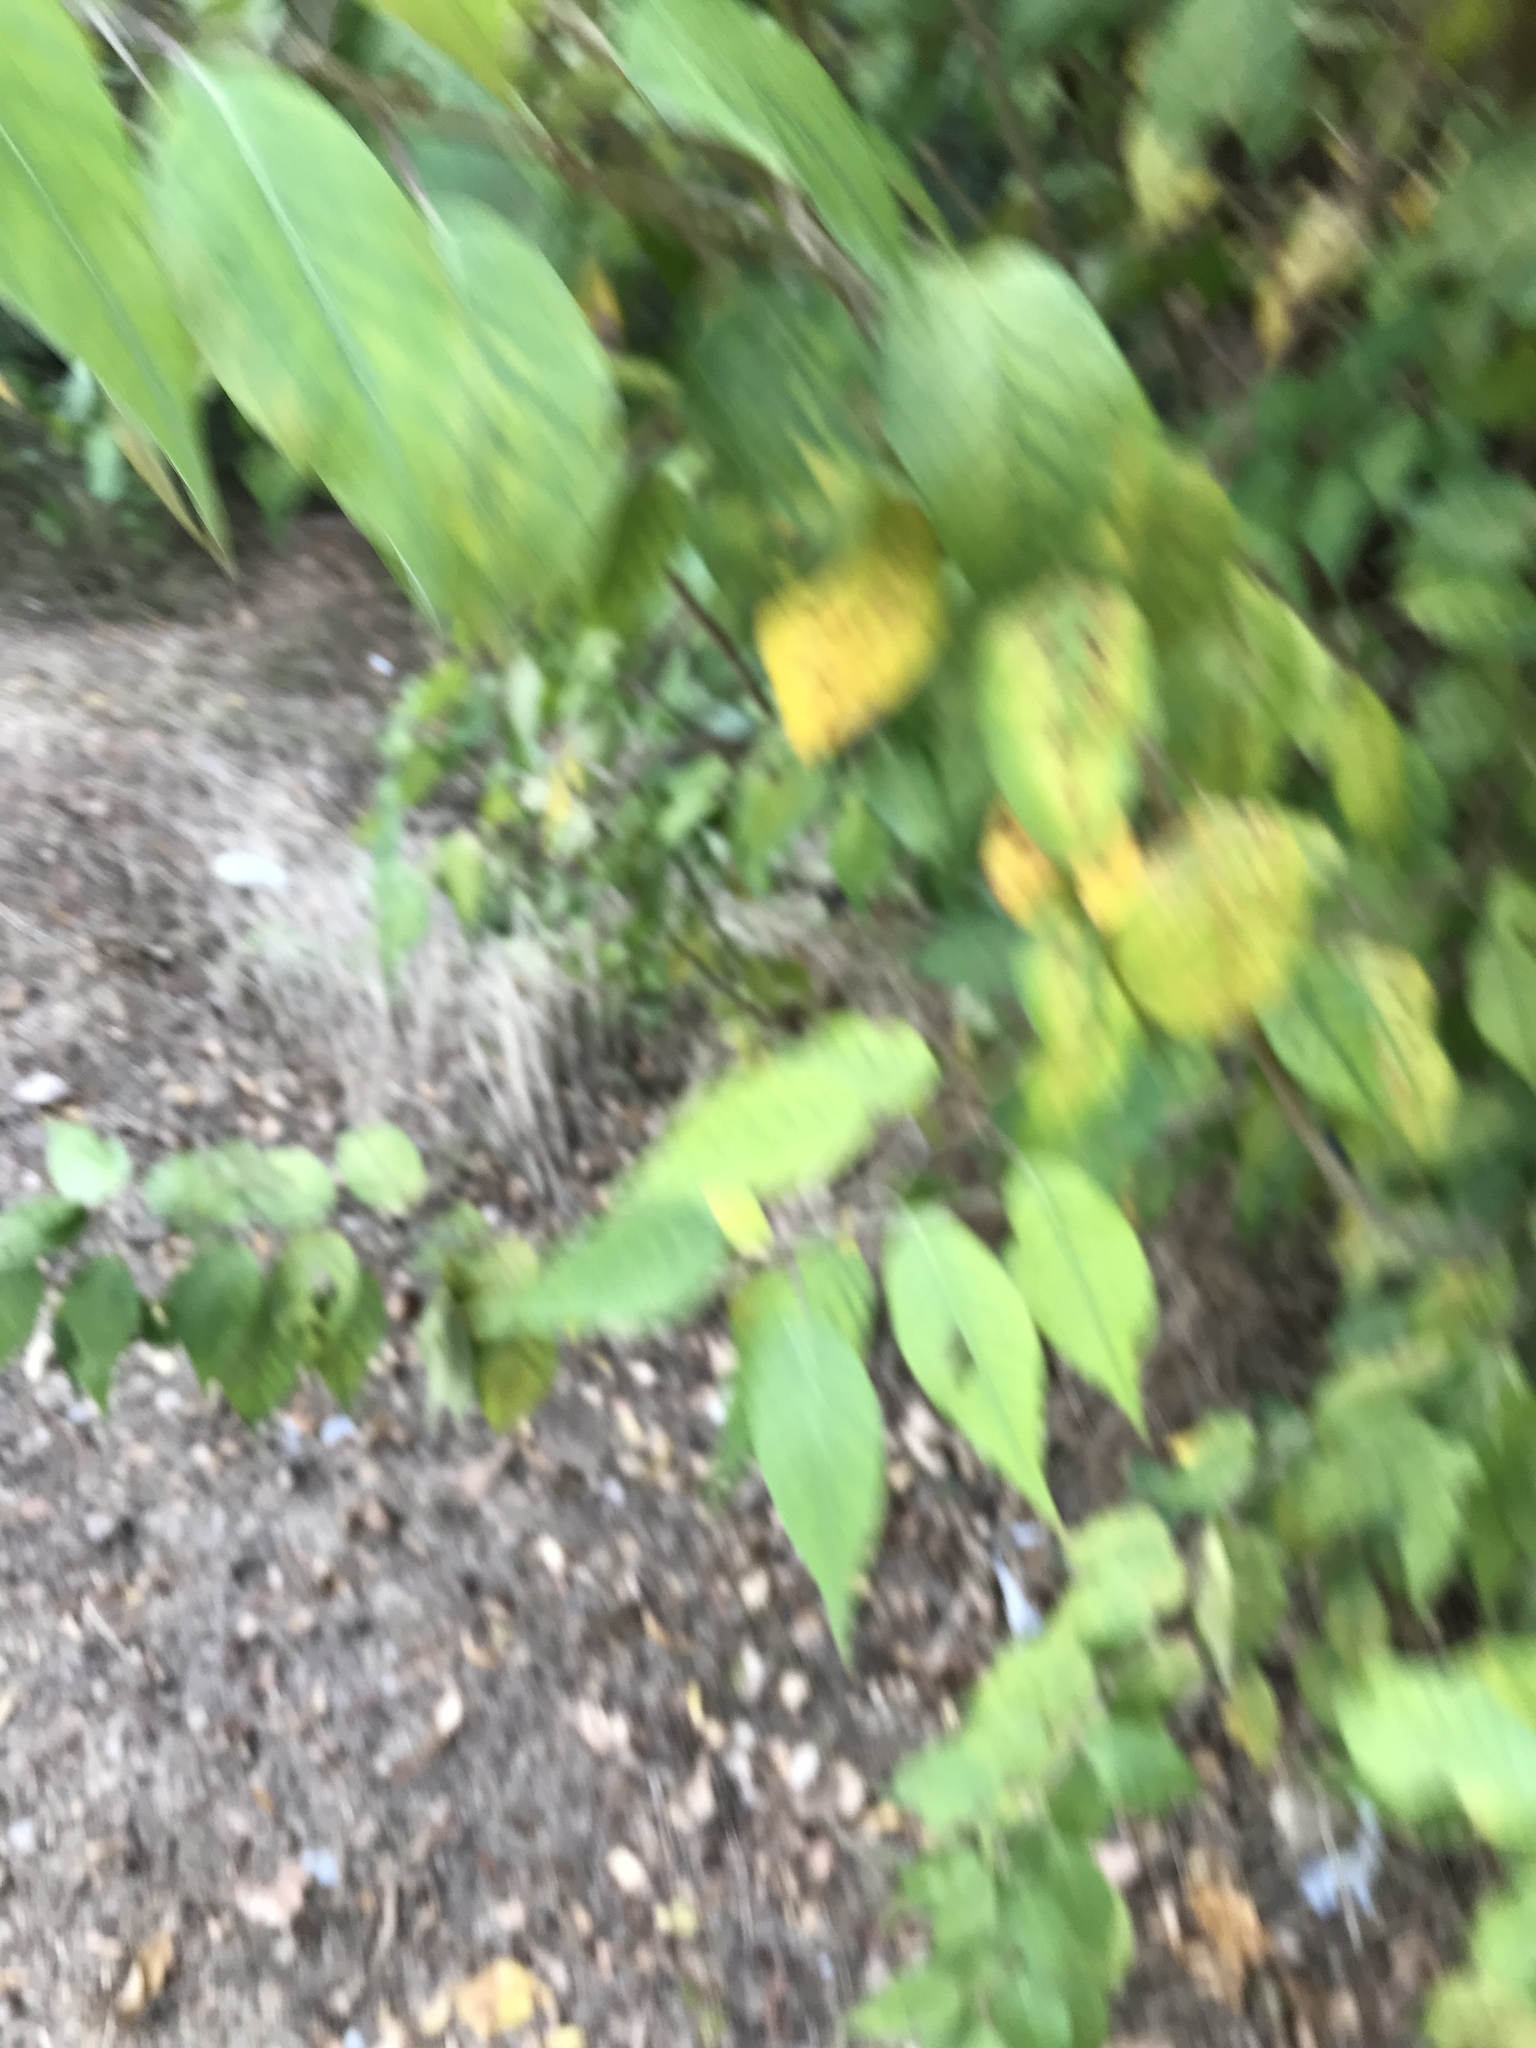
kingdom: Plantae
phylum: Tracheophyta
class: Magnoliopsida
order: Rosales
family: Moraceae
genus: Maclura
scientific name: Maclura pomifera
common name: Osage-orange
